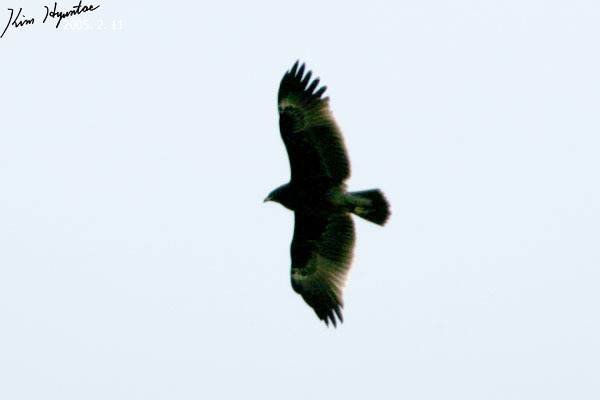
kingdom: Animalia
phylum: Chordata
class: Aves
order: Accipitriformes
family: Accipitridae
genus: Aquila
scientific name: Aquila clanga
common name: Greater spotted eagle
